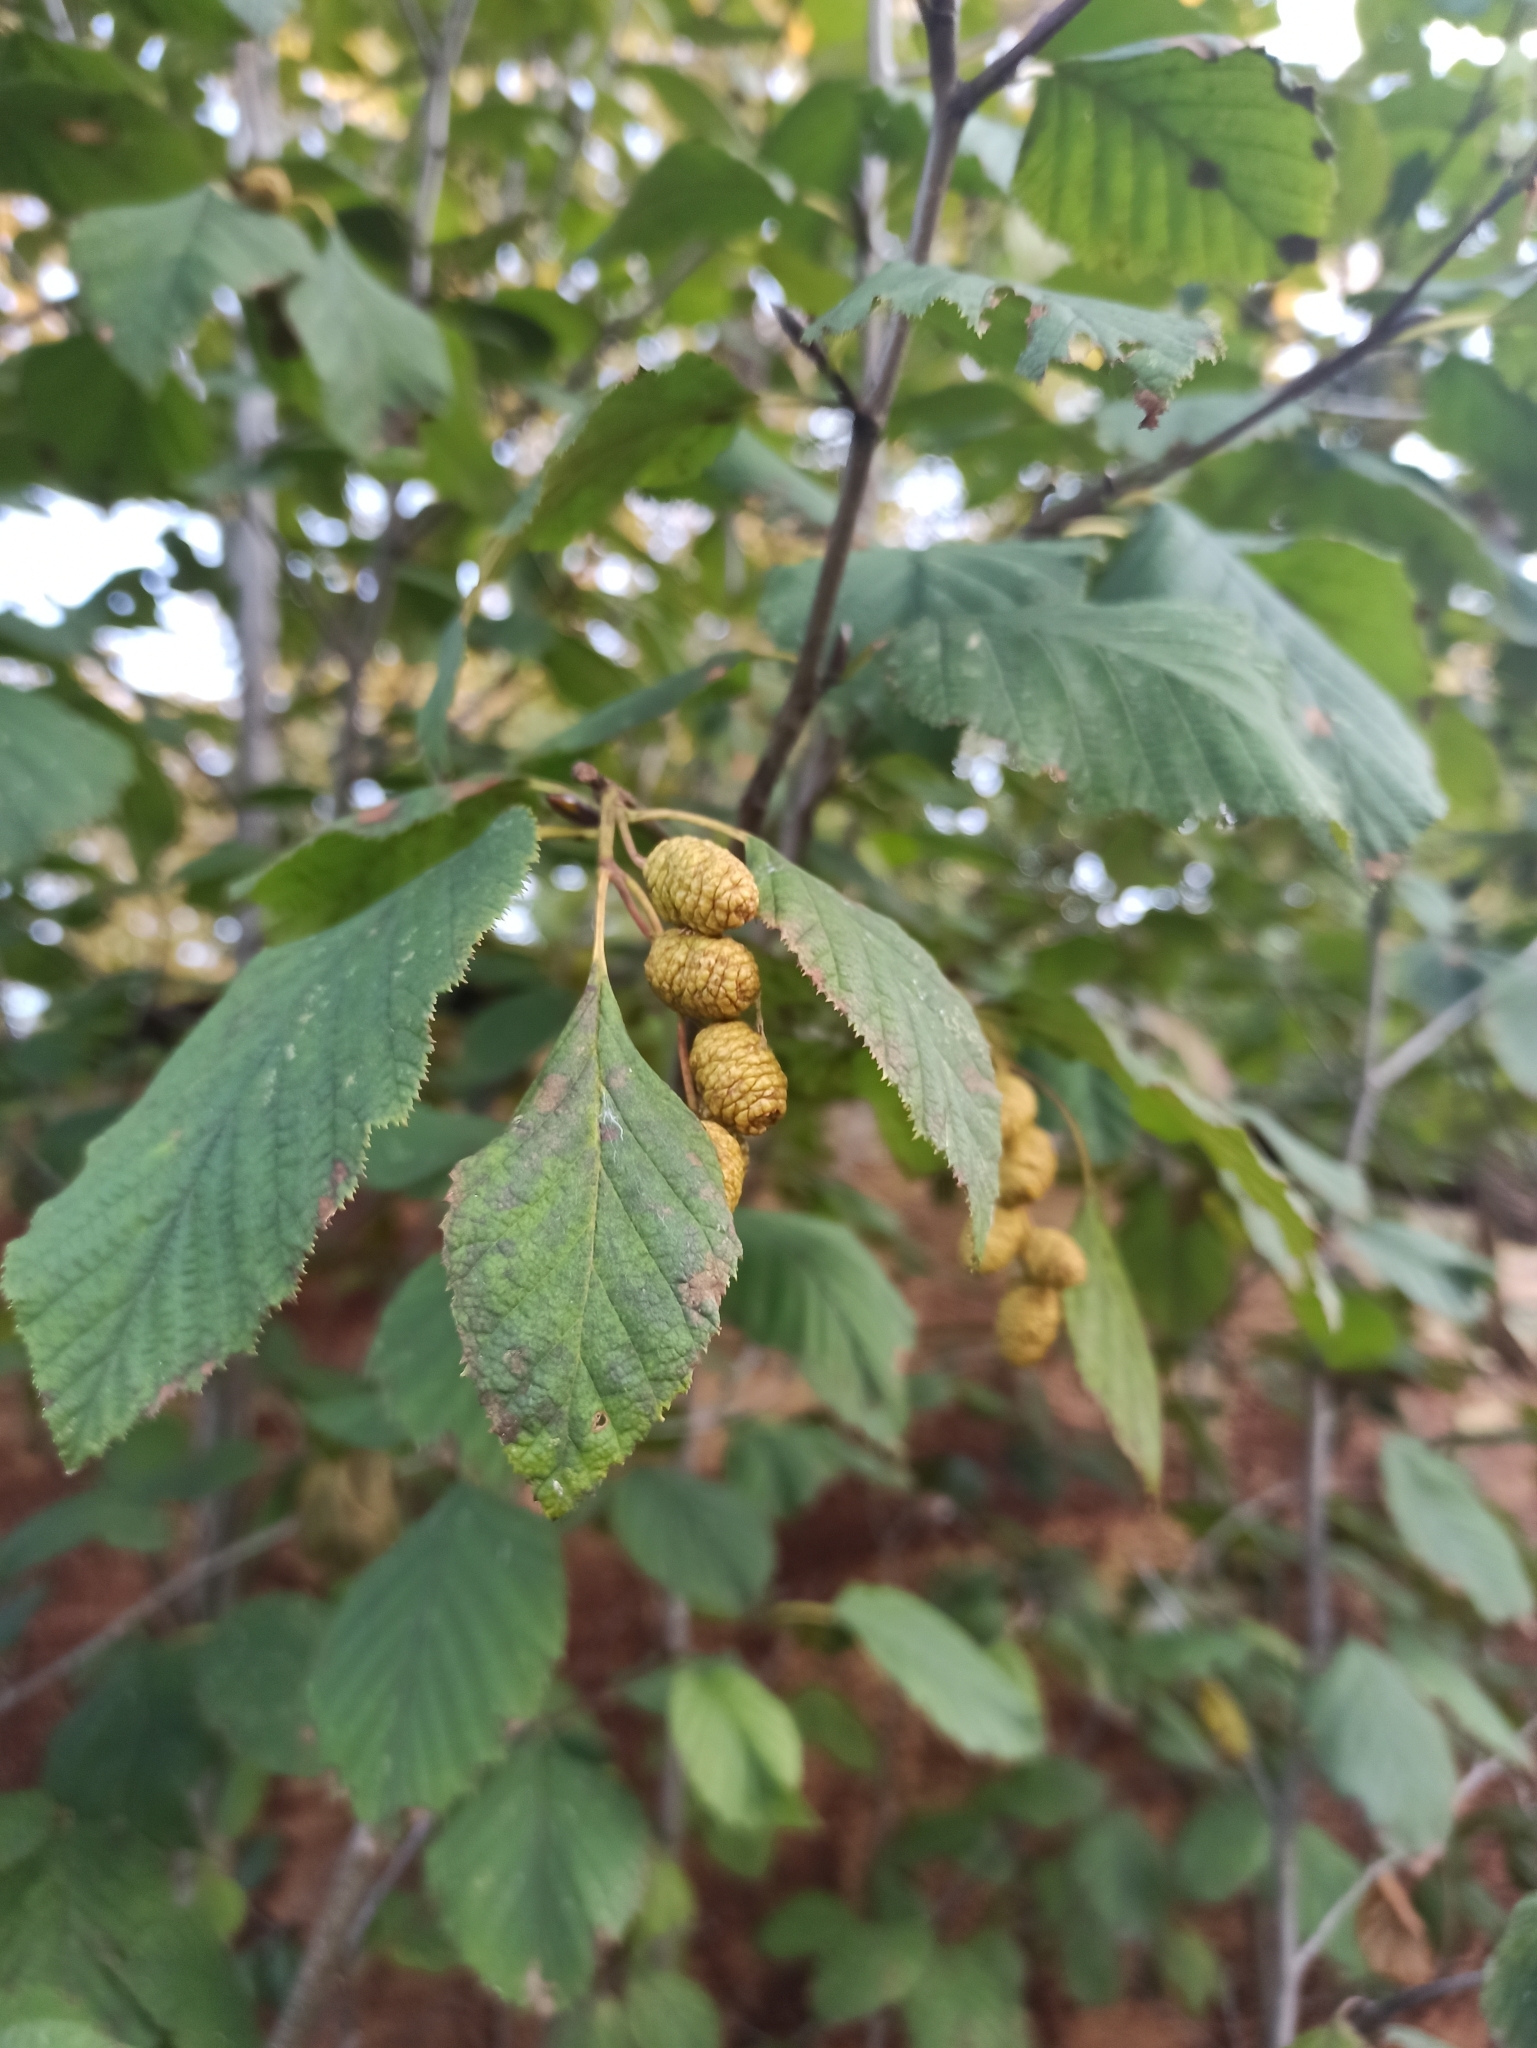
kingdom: Plantae
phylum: Tracheophyta
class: Magnoliopsida
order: Fagales
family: Betulaceae
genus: Alnus
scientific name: Alnus alnobetula
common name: Green alder
